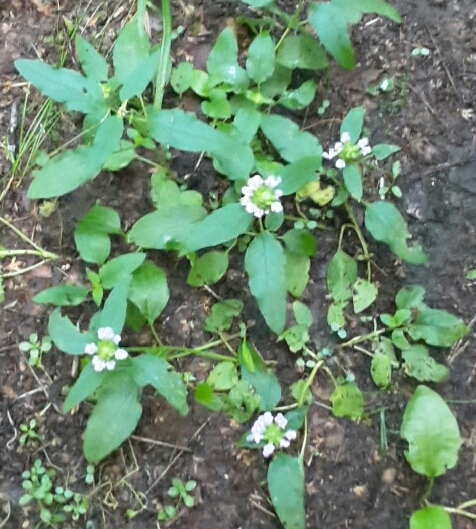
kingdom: Plantae
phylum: Tracheophyta
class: Magnoliopsida
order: Lamiales
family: Lamiaceae
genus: Prunella
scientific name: Prunella vulgaris
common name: Heal-all
